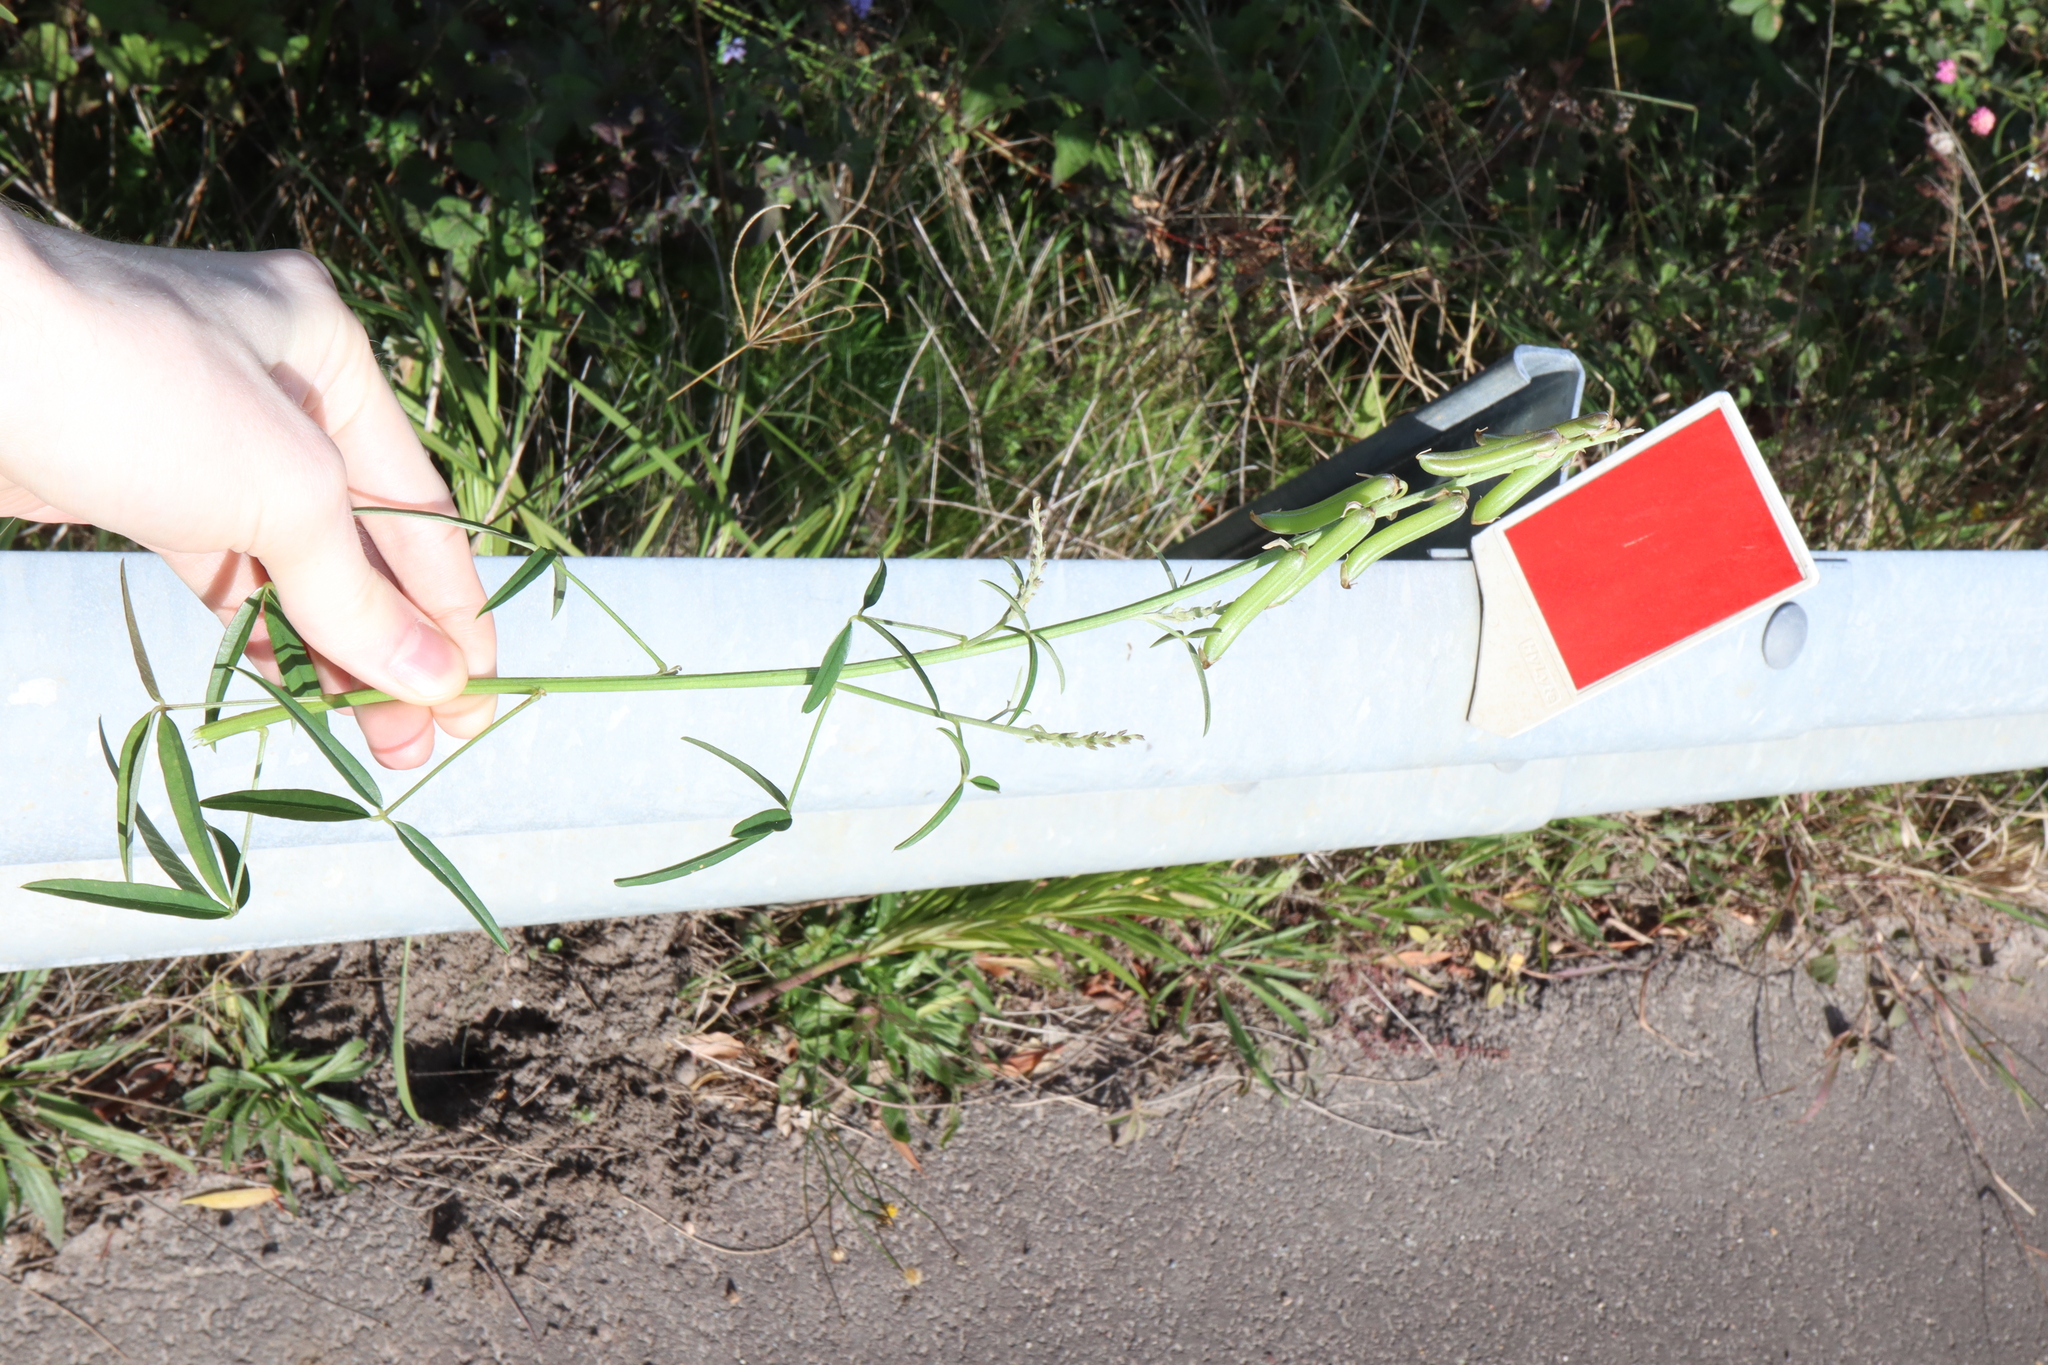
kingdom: Plantae
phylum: Tracheophyta
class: Magnoliopsida
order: Fabales
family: Fabaceae
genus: Crotalaria
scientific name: Crotalaria lanceolata
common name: Lanceleaf rattlebox
